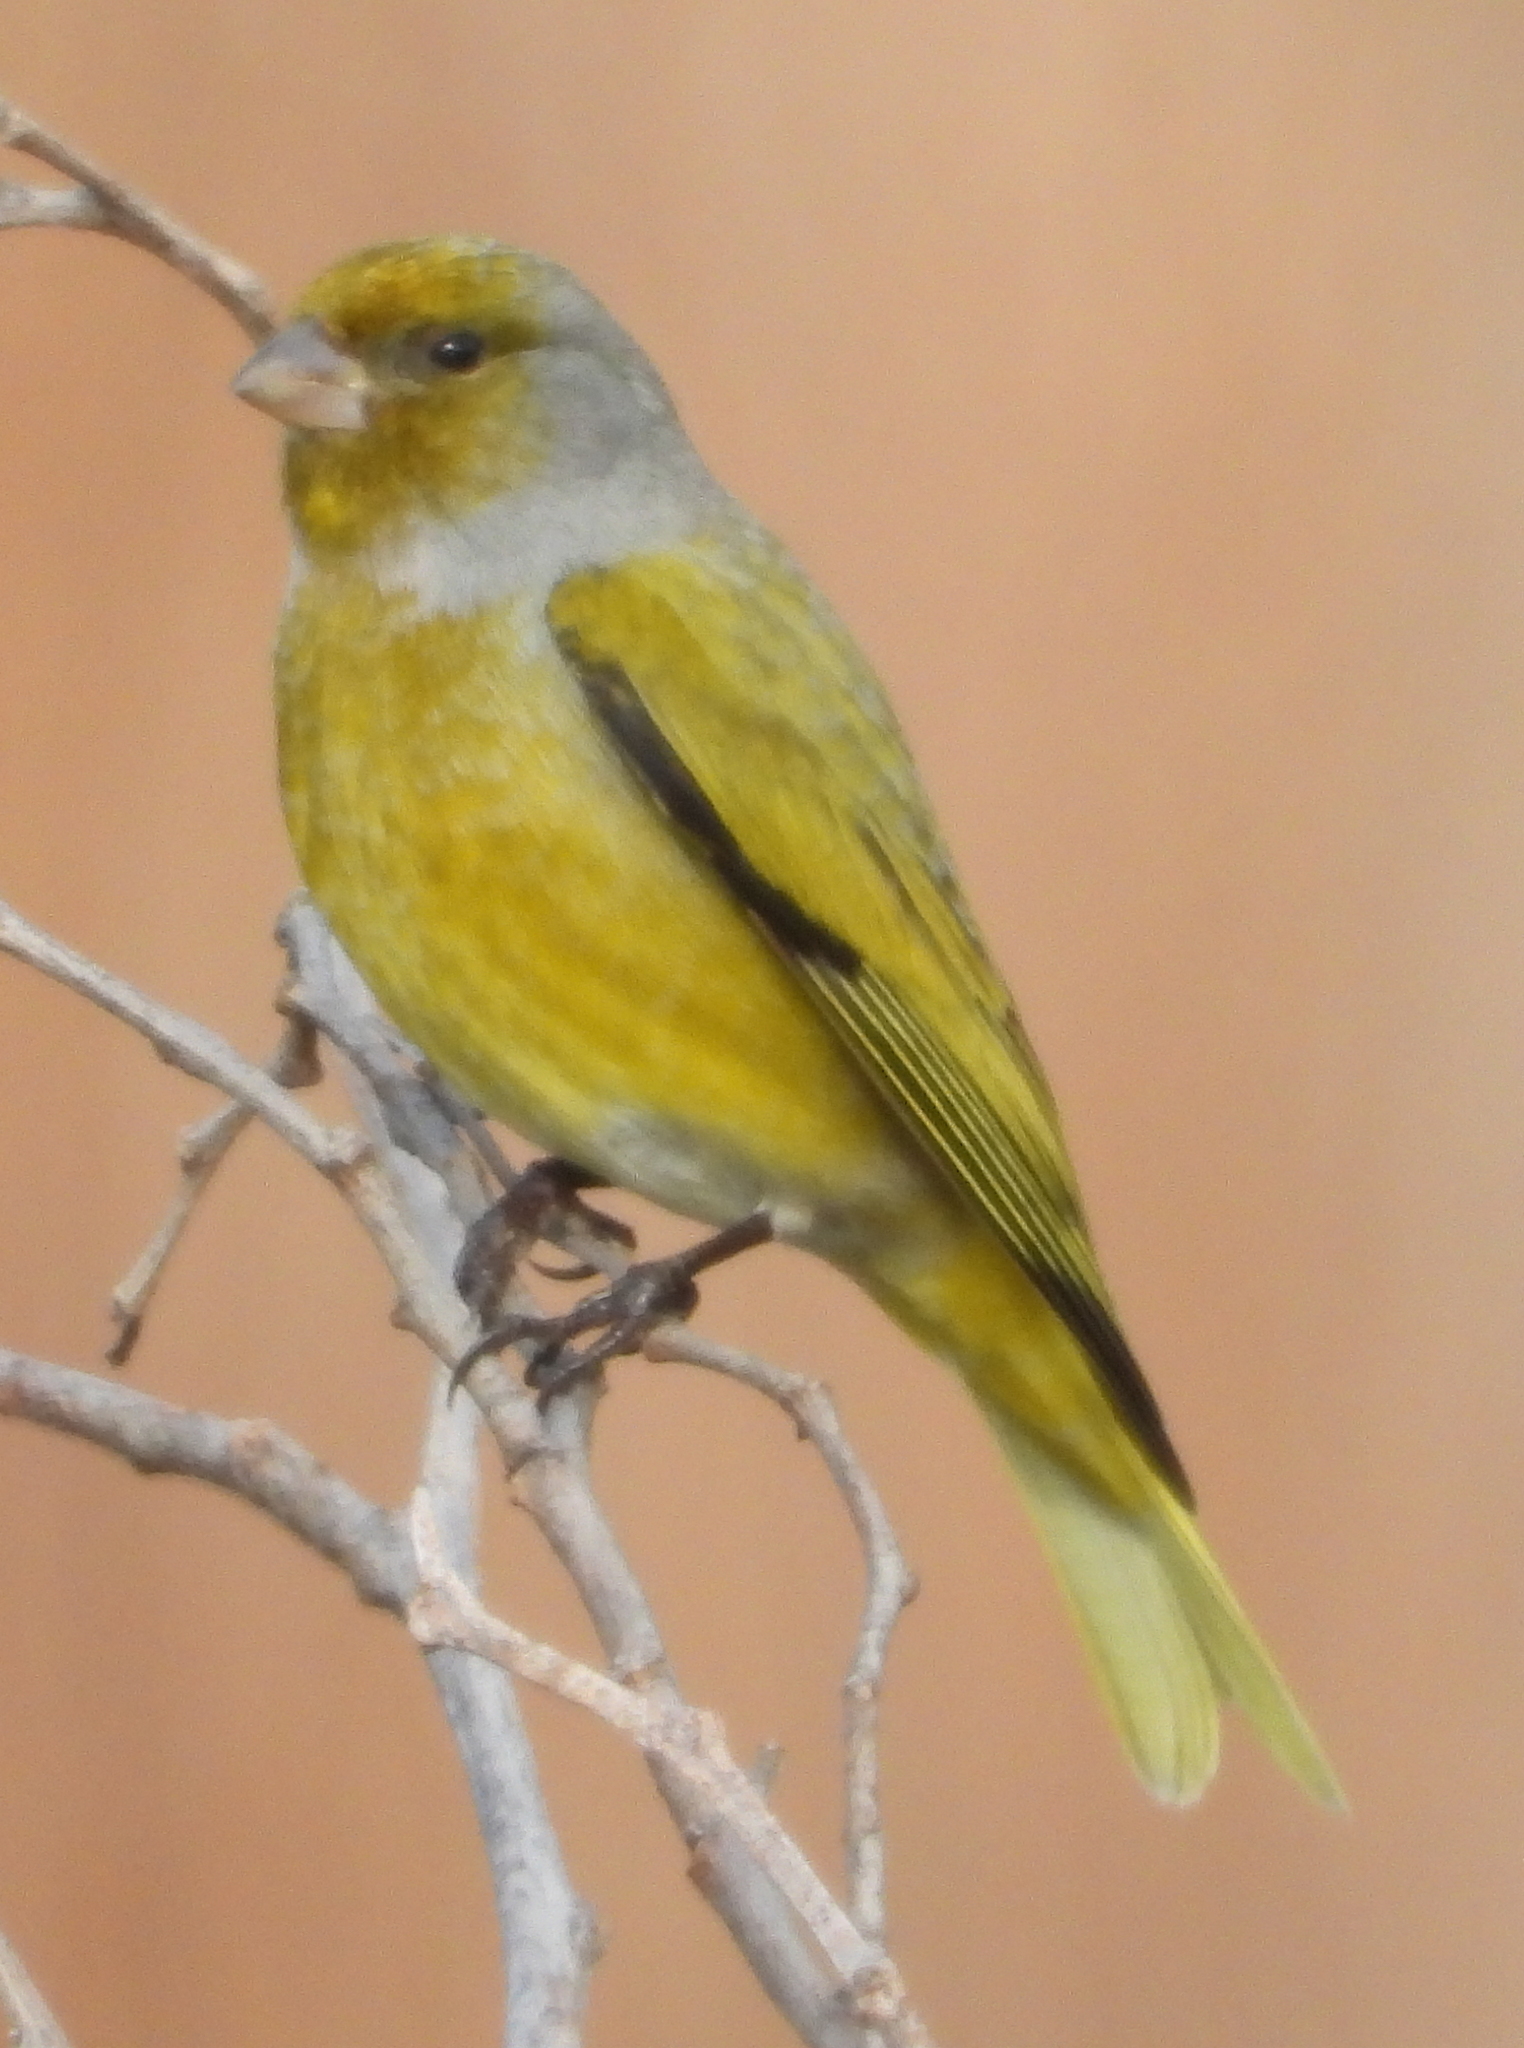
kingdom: Animalia
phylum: Chordata
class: Aves
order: Passeriformes
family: Fringillidae
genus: Serinus
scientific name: Serinus canicollis
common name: Cape canary
